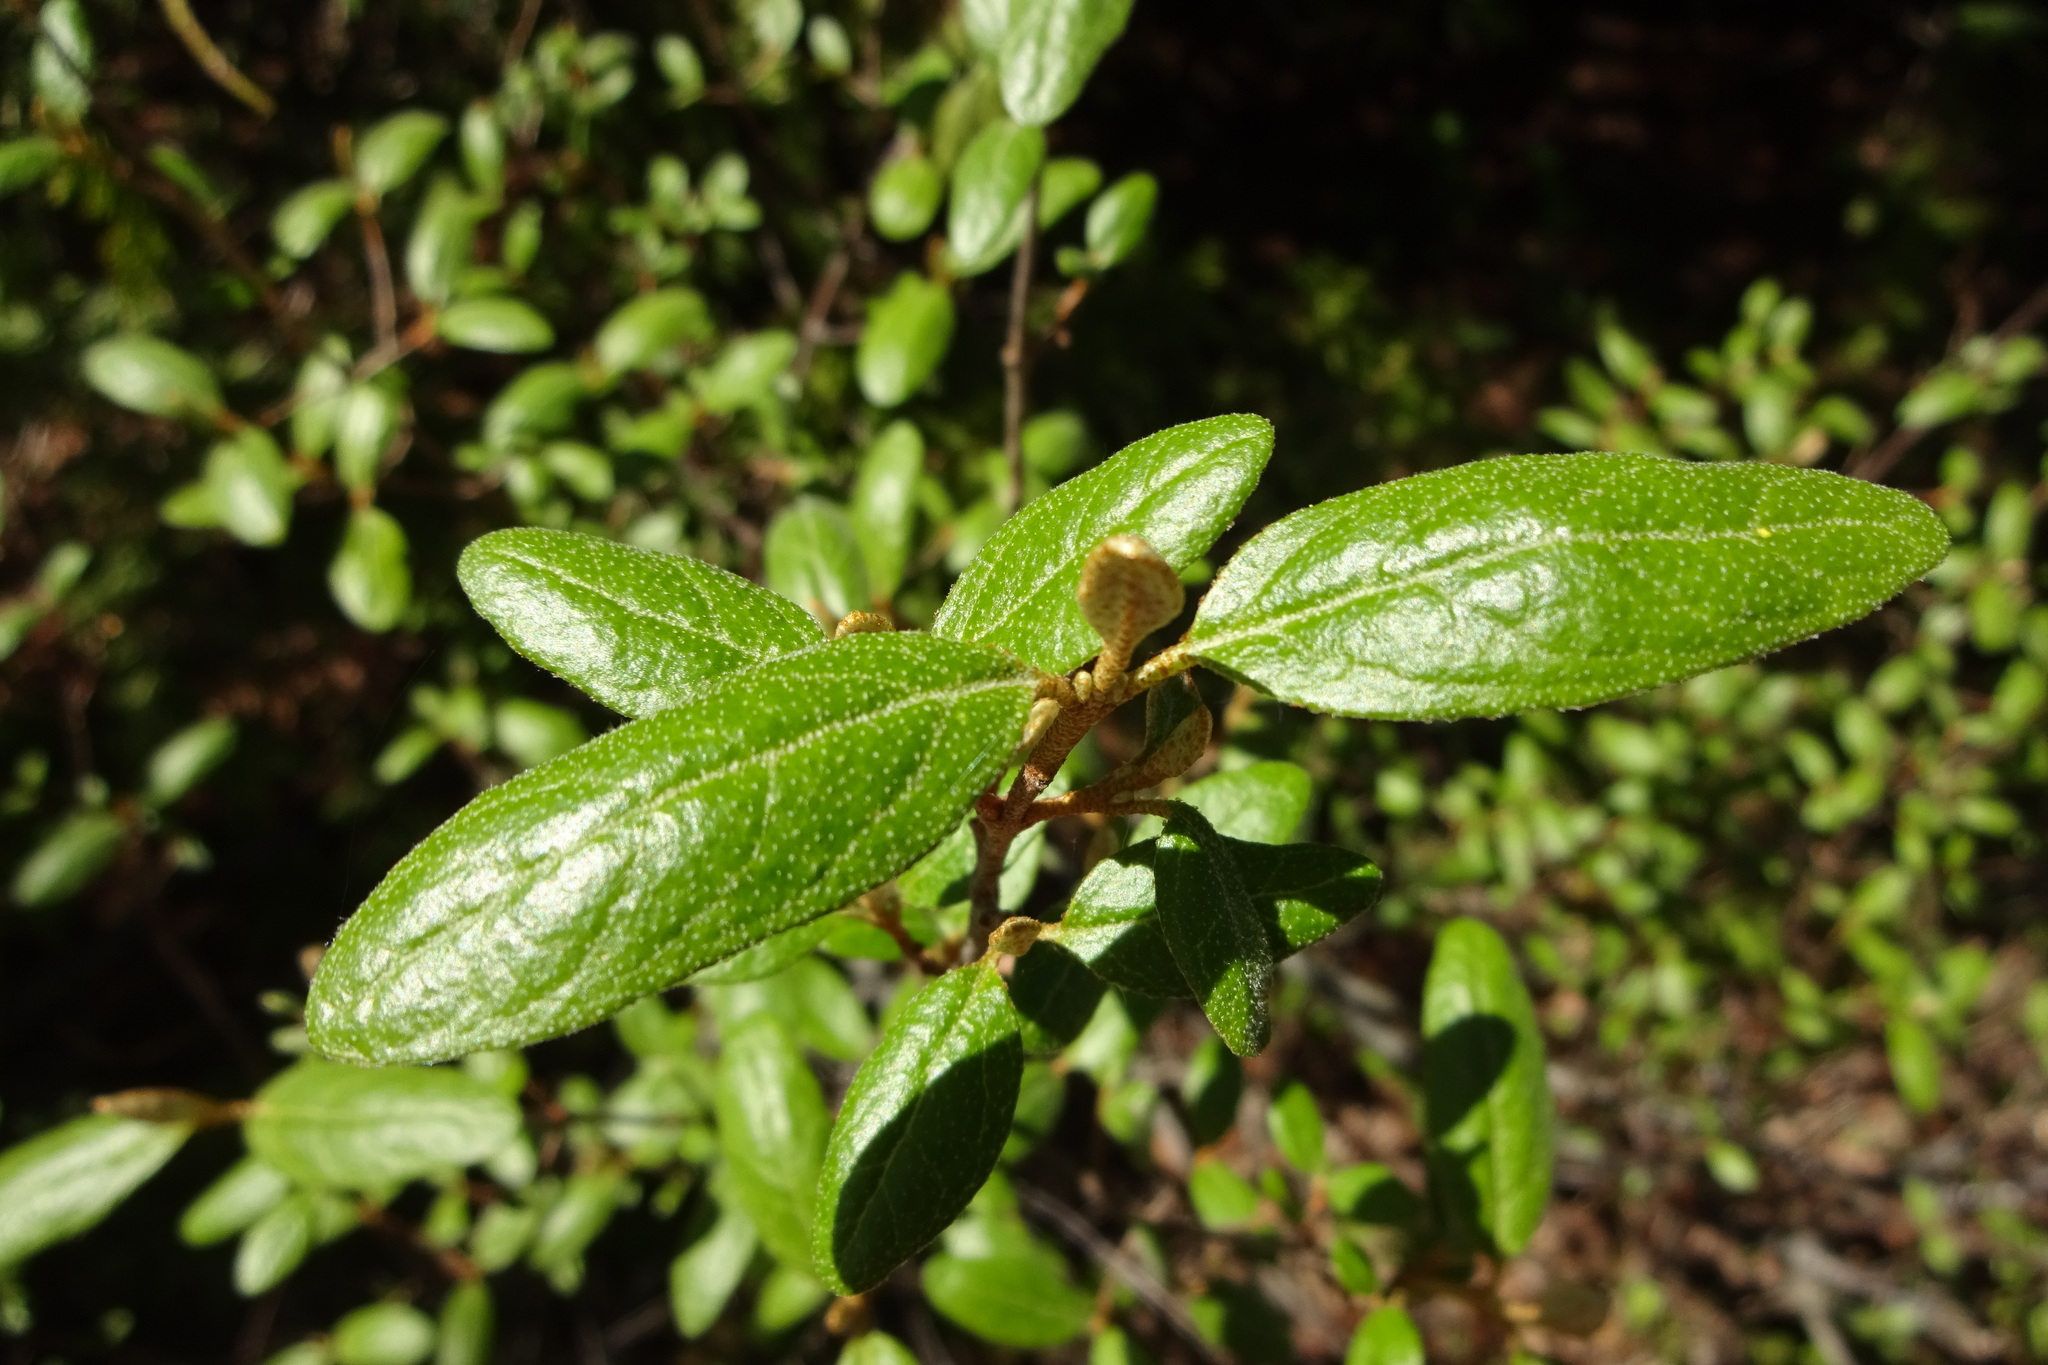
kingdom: Plantae
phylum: Tracheophyta
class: Magnoliopsida
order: Rosales
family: Elaeagnaceae
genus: Shepherdia
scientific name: Shepherdia canadensis
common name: Soapberry
